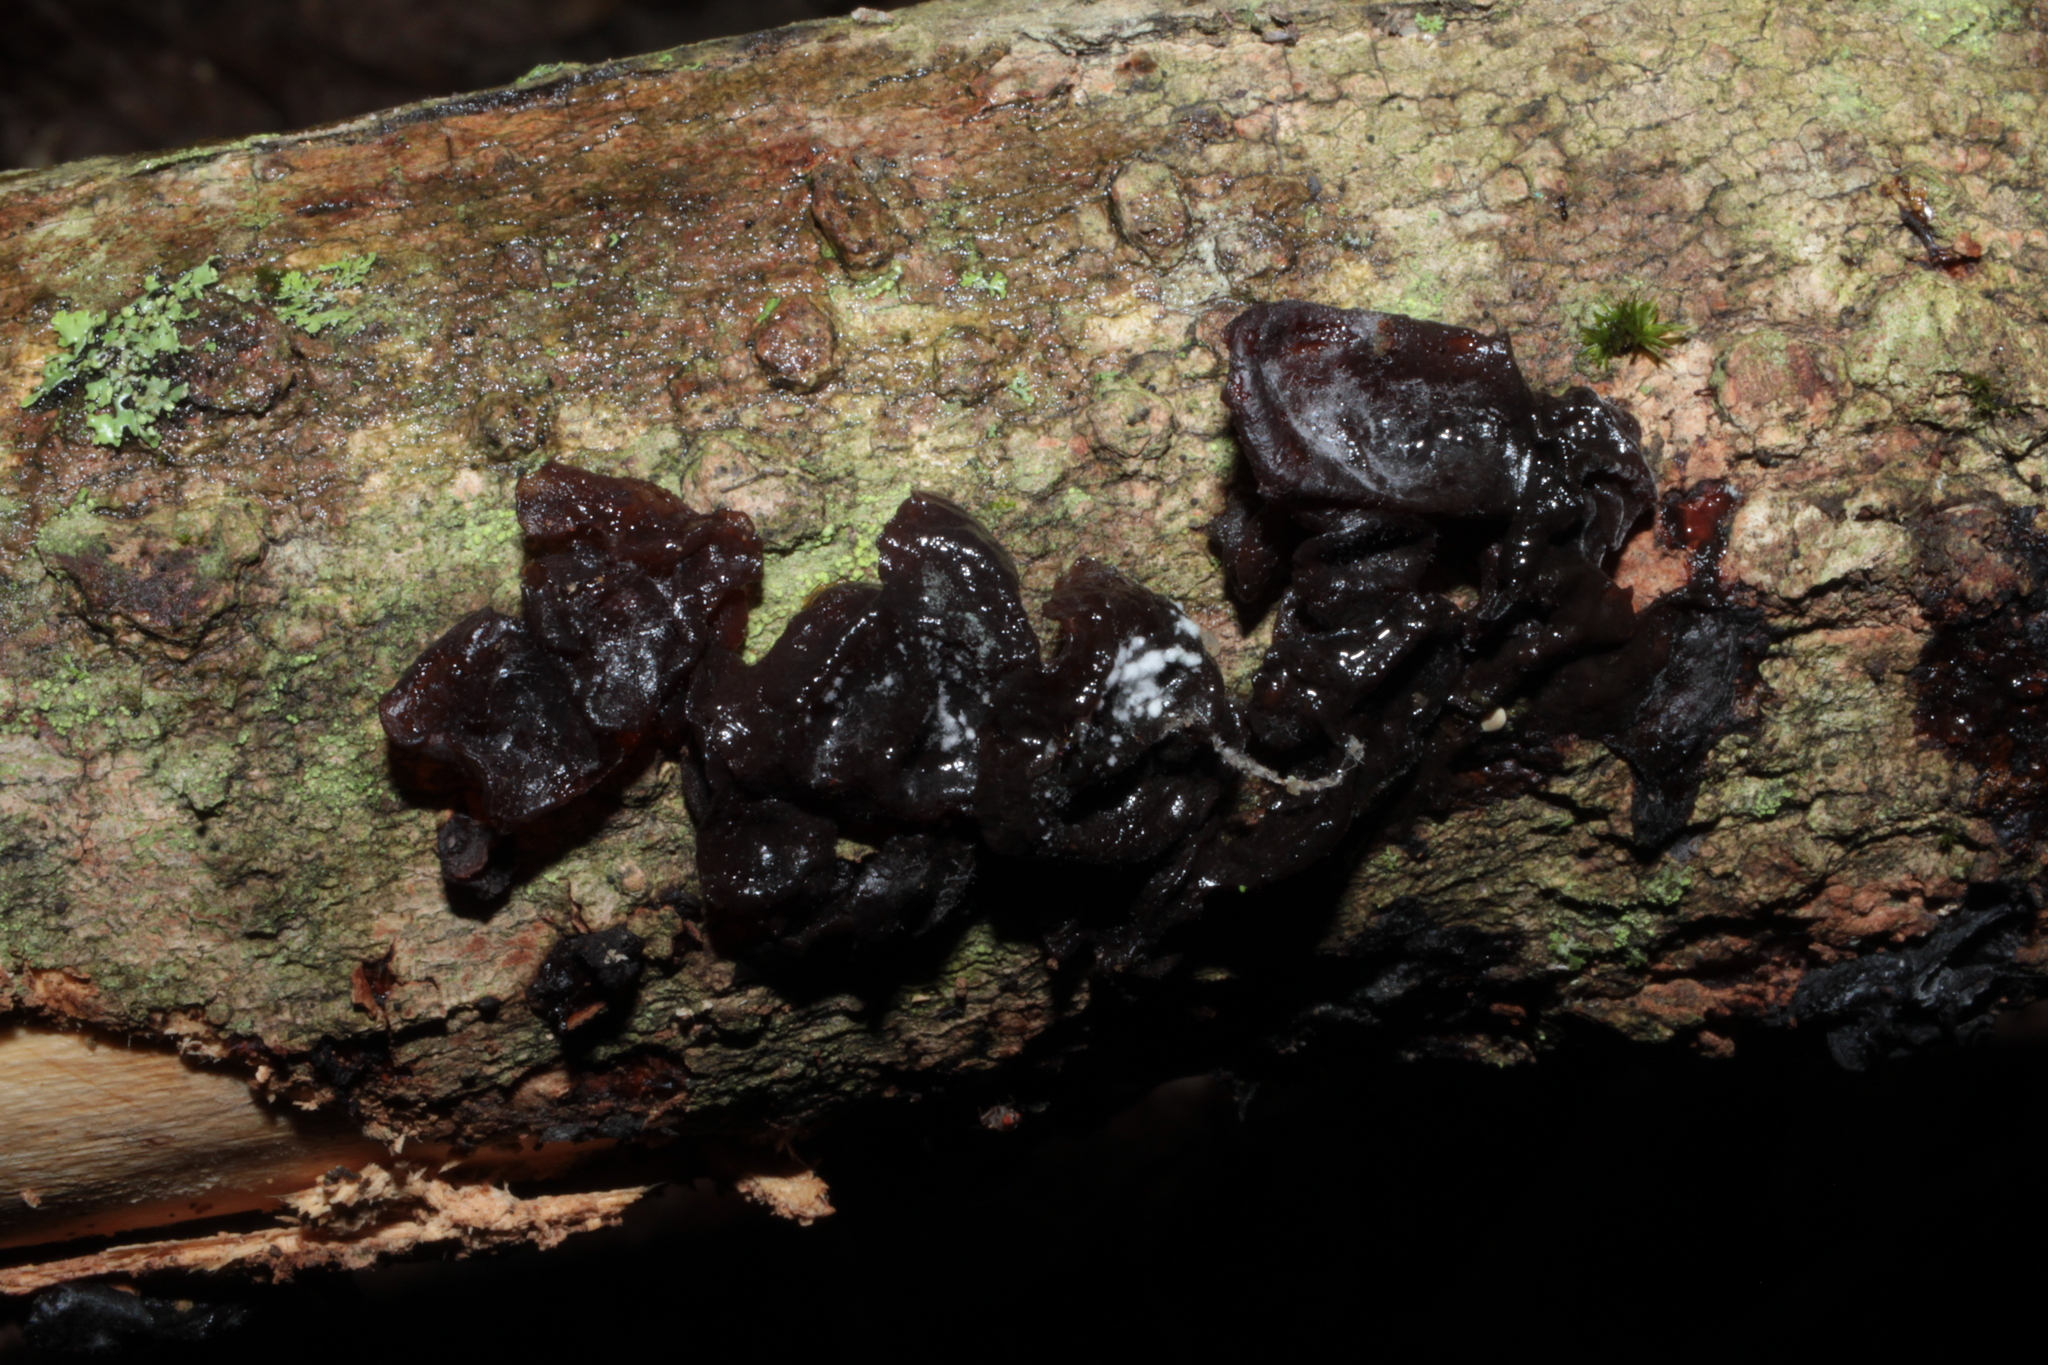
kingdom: Fungi
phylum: Basidiomycota
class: Agaricomycetes
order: Auriculariales
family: Auriculariaceae
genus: Exidia
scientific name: Exidia
